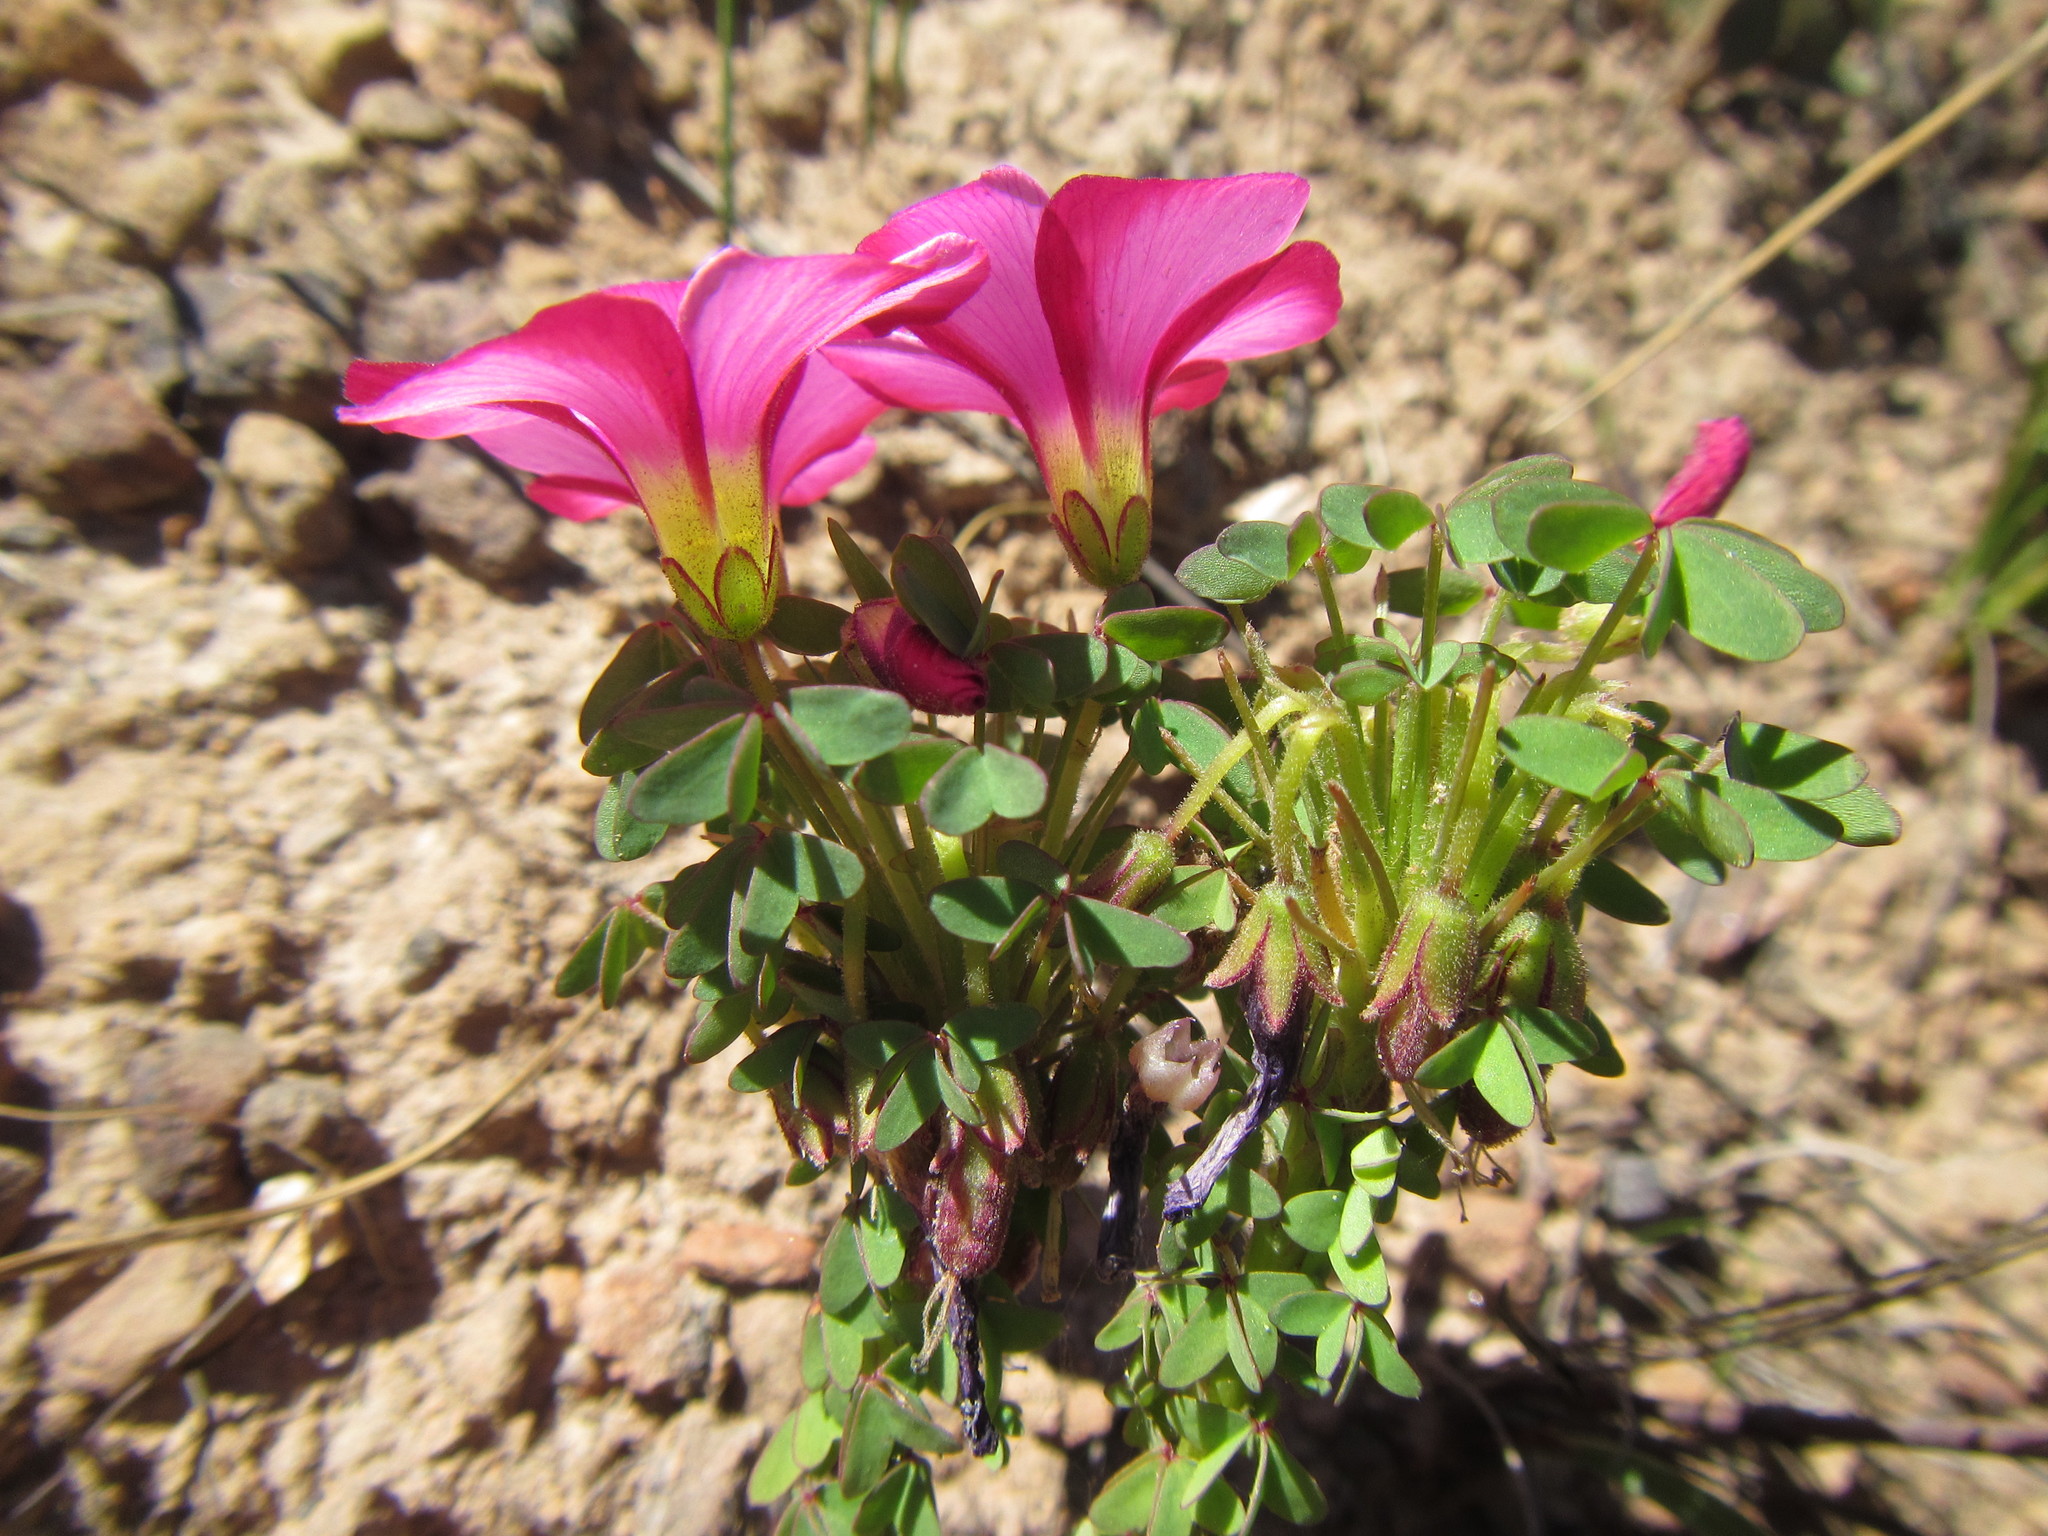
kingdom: Plantae
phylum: Tracheophyta
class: Magnoliopsida
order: Oxalidales
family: Oxalidaceae
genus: Oxalis
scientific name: Oxalis heterophylla
